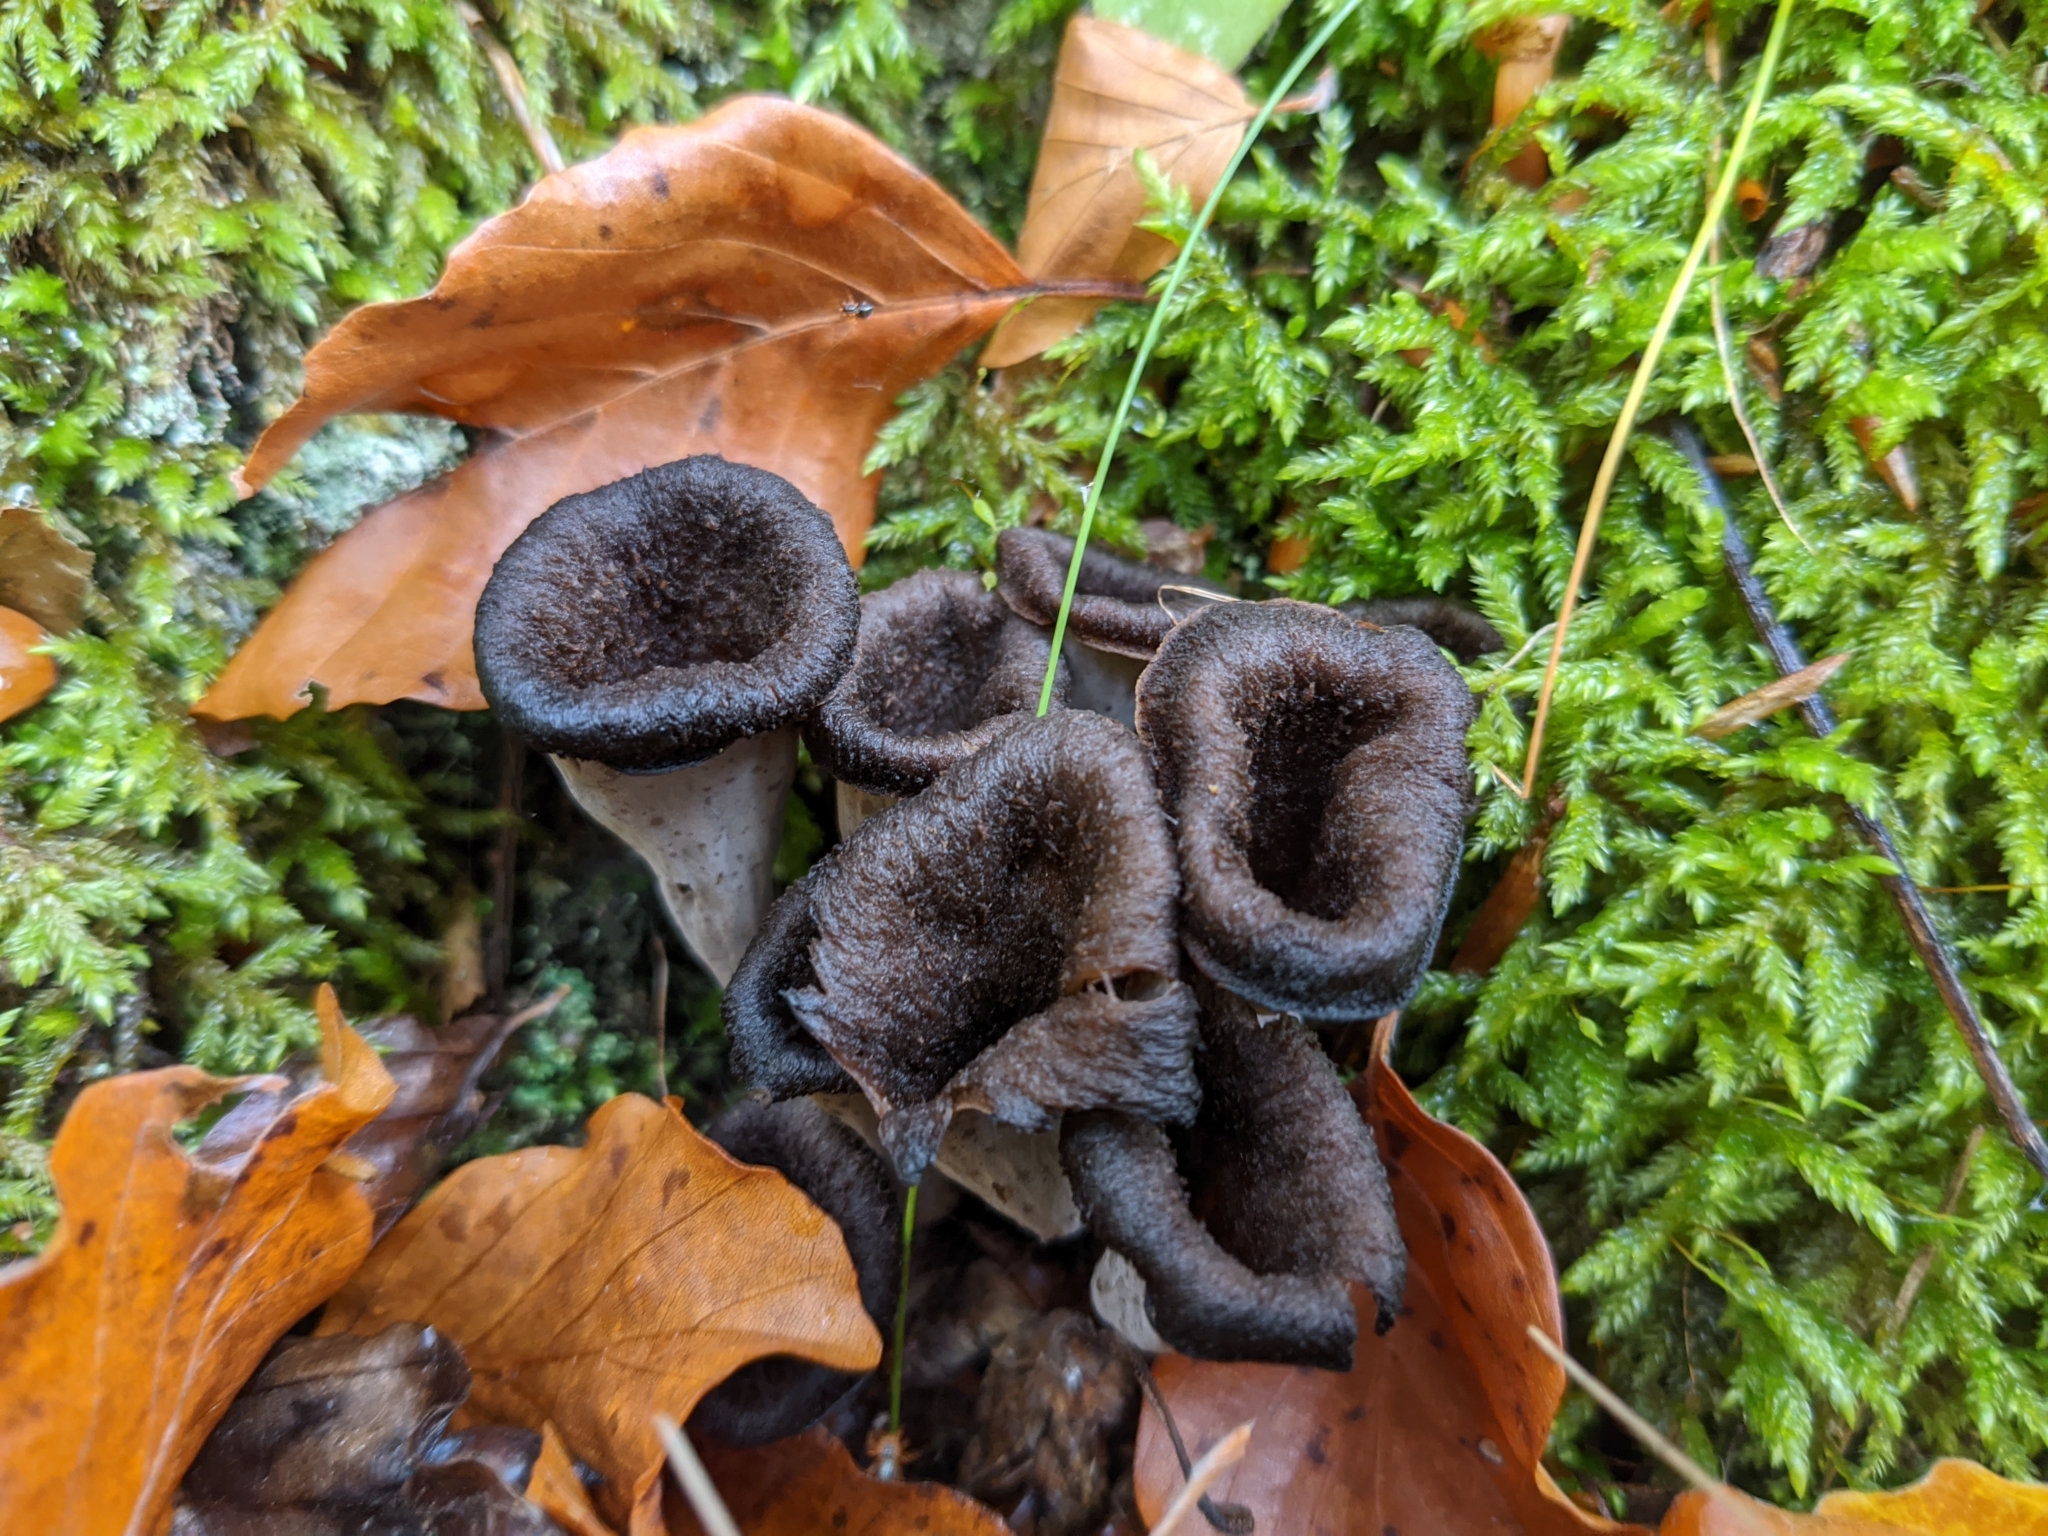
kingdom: Fungi
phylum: Basidiomycota
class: Agaricomycetes
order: Cantharellales
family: Hydnaceae
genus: Craterellus
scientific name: Craterellus cornucopioides
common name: Horn of plenty
